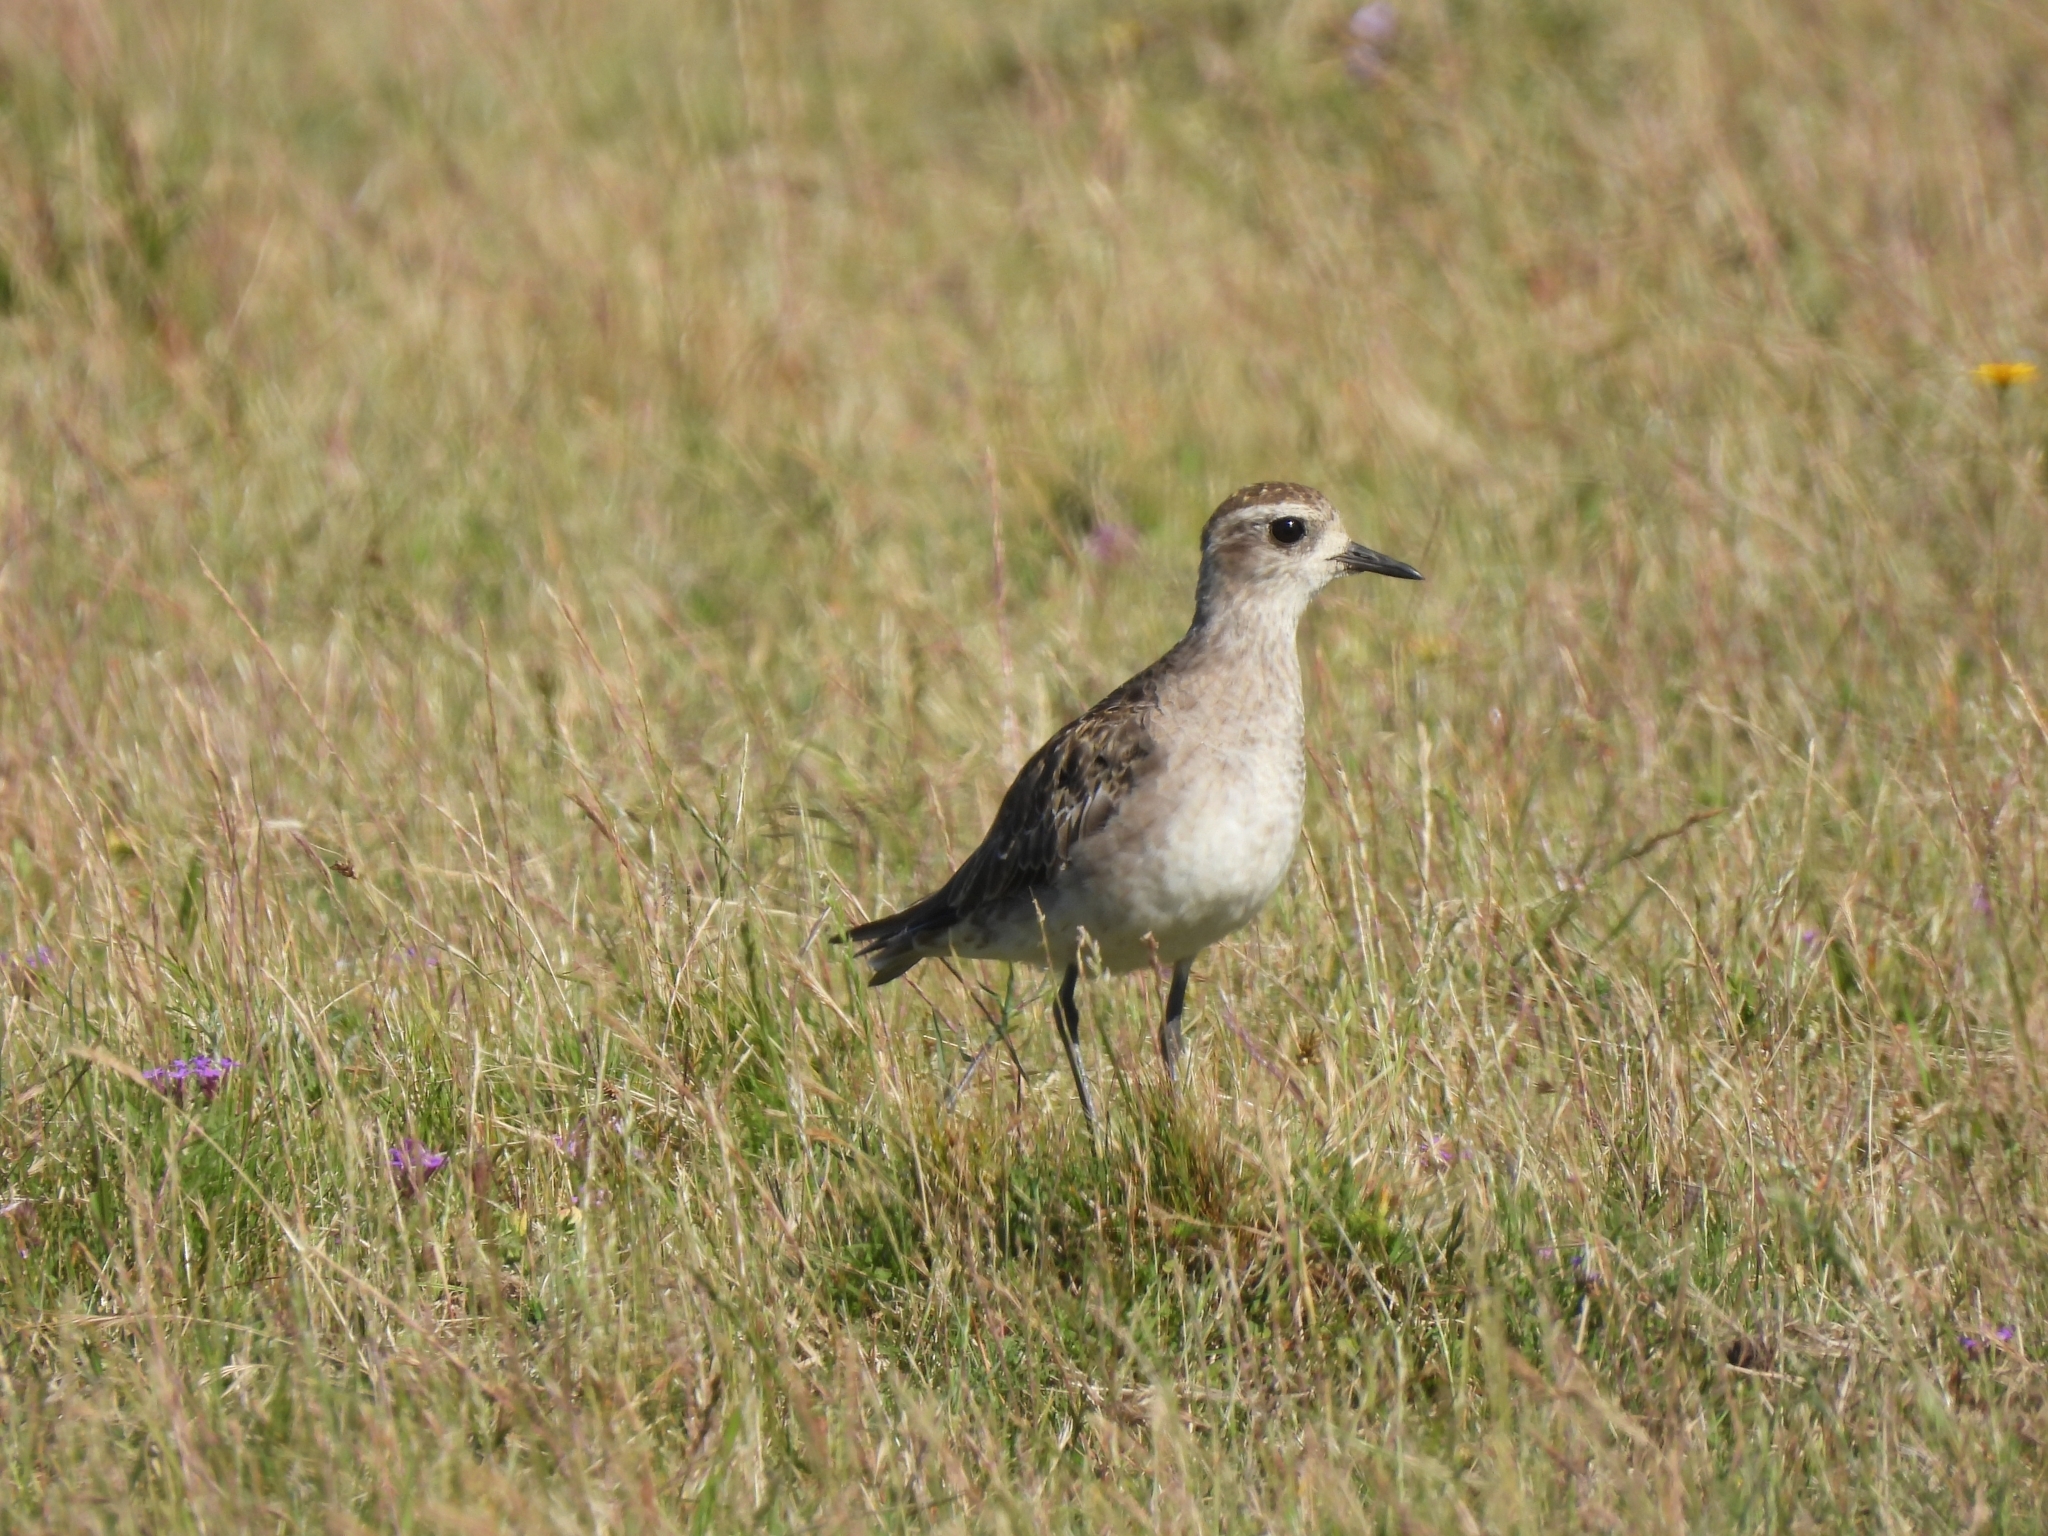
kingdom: Animalia
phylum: Chordata
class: Aves
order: Charadriiformes
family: Charadriidae
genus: Pluvialis
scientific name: Pluvialis dominica
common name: American golden plover
